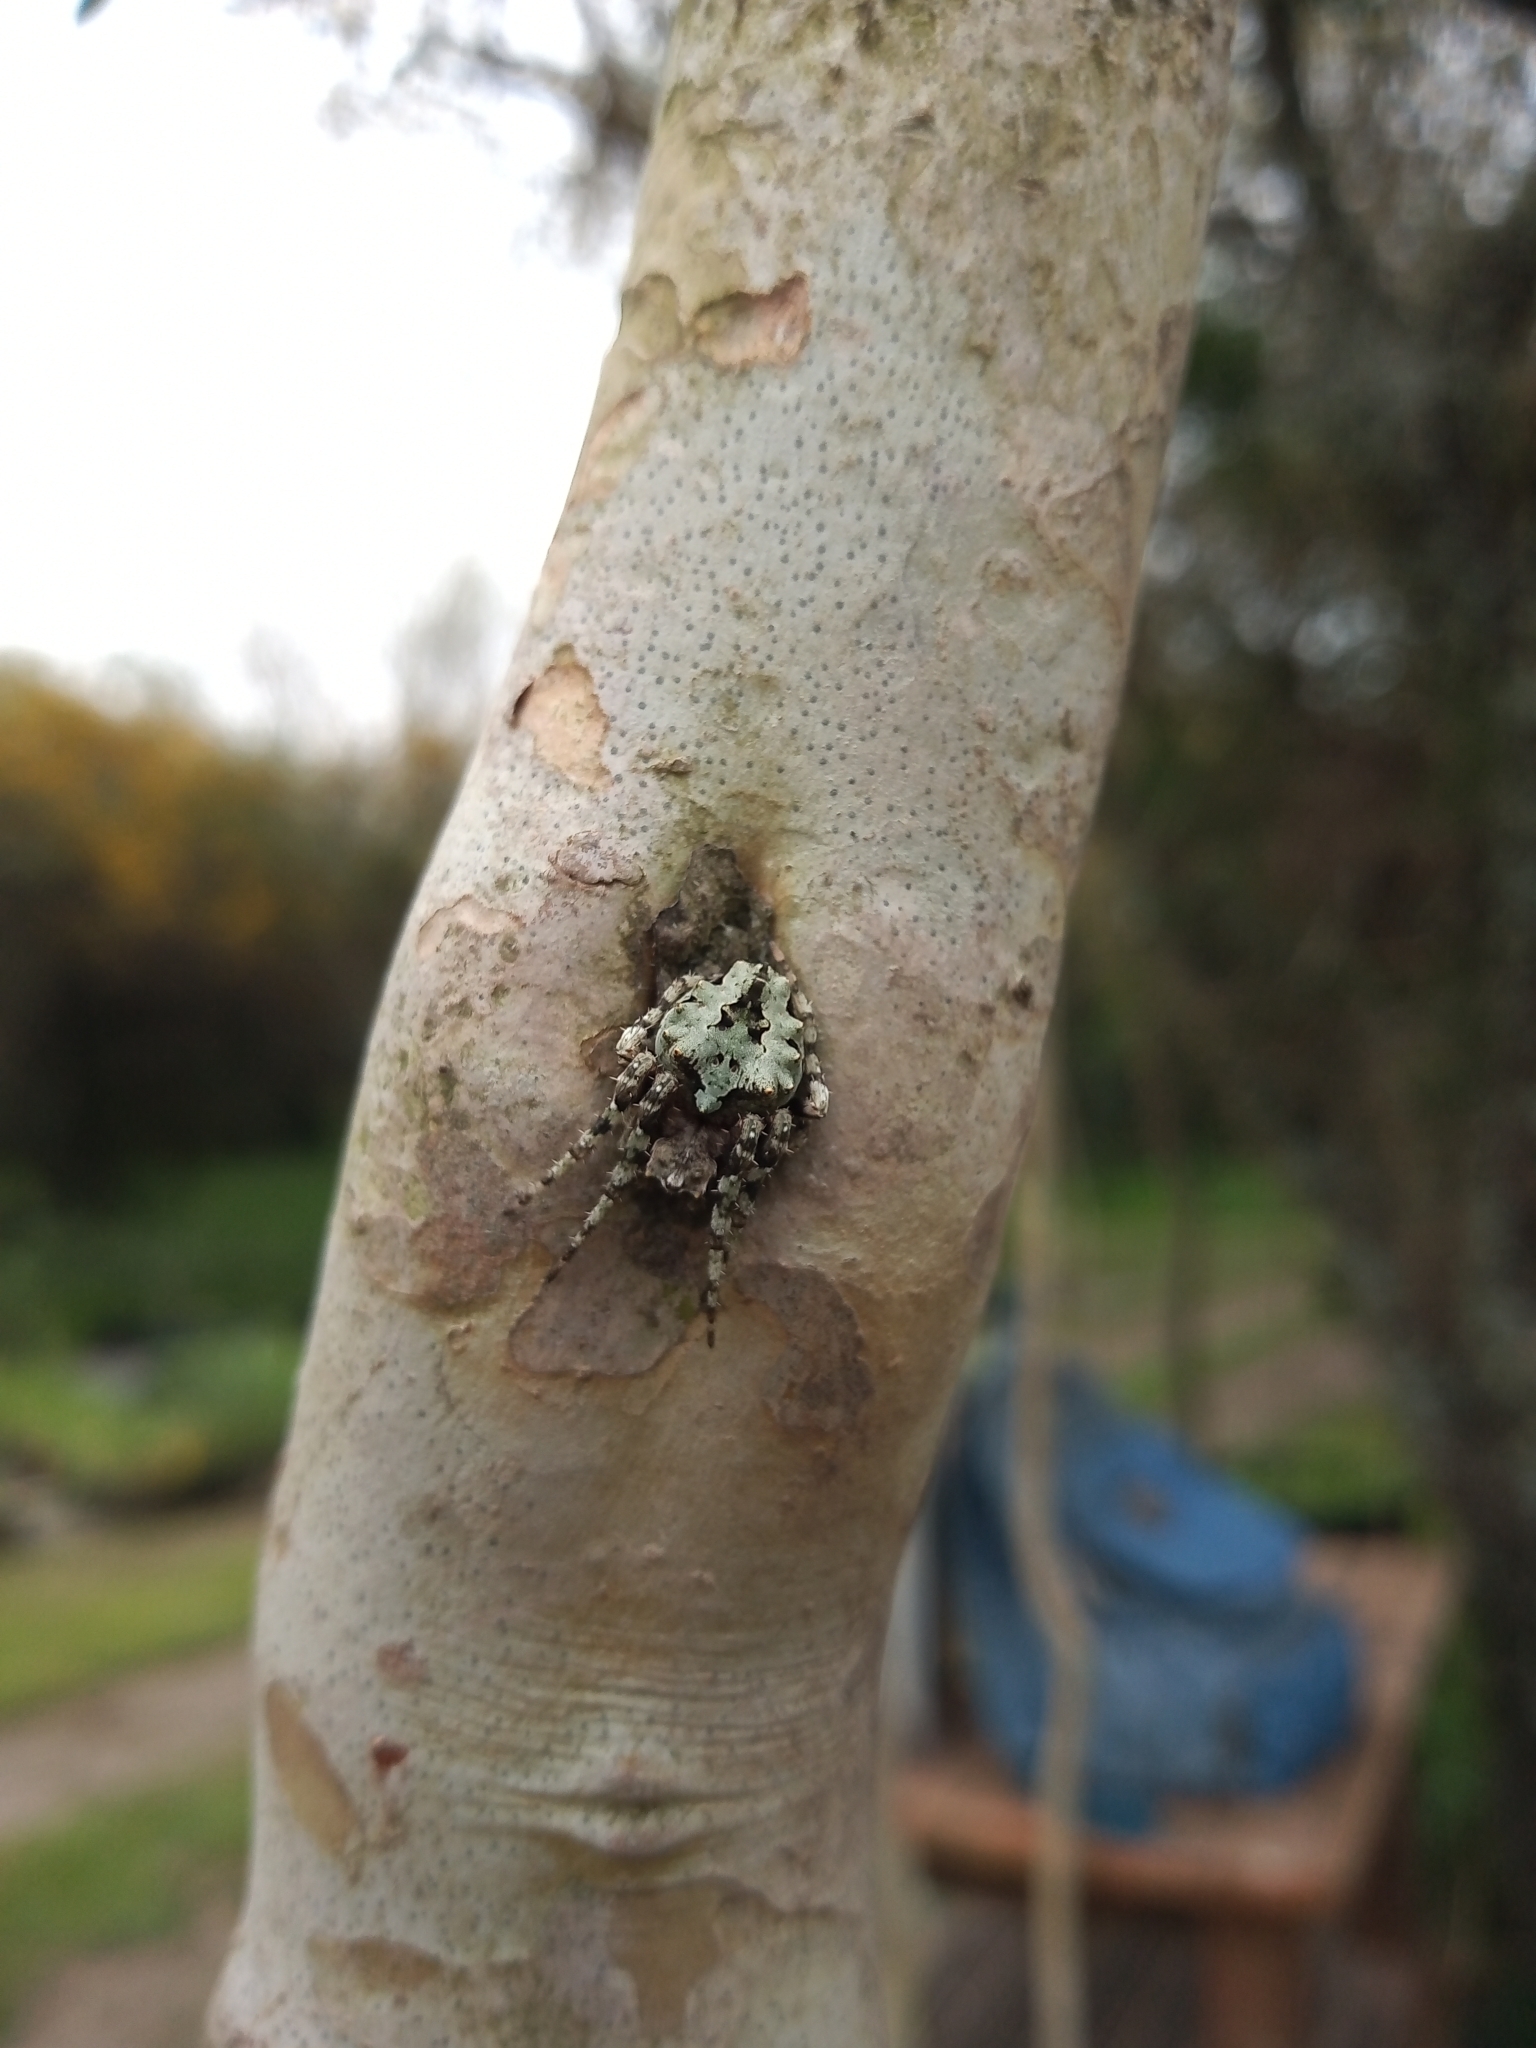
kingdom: Animalia
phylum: Arthropoda
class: Arachnida
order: Araneae
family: Araneidae
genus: Parawixia
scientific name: Parawixia audax
